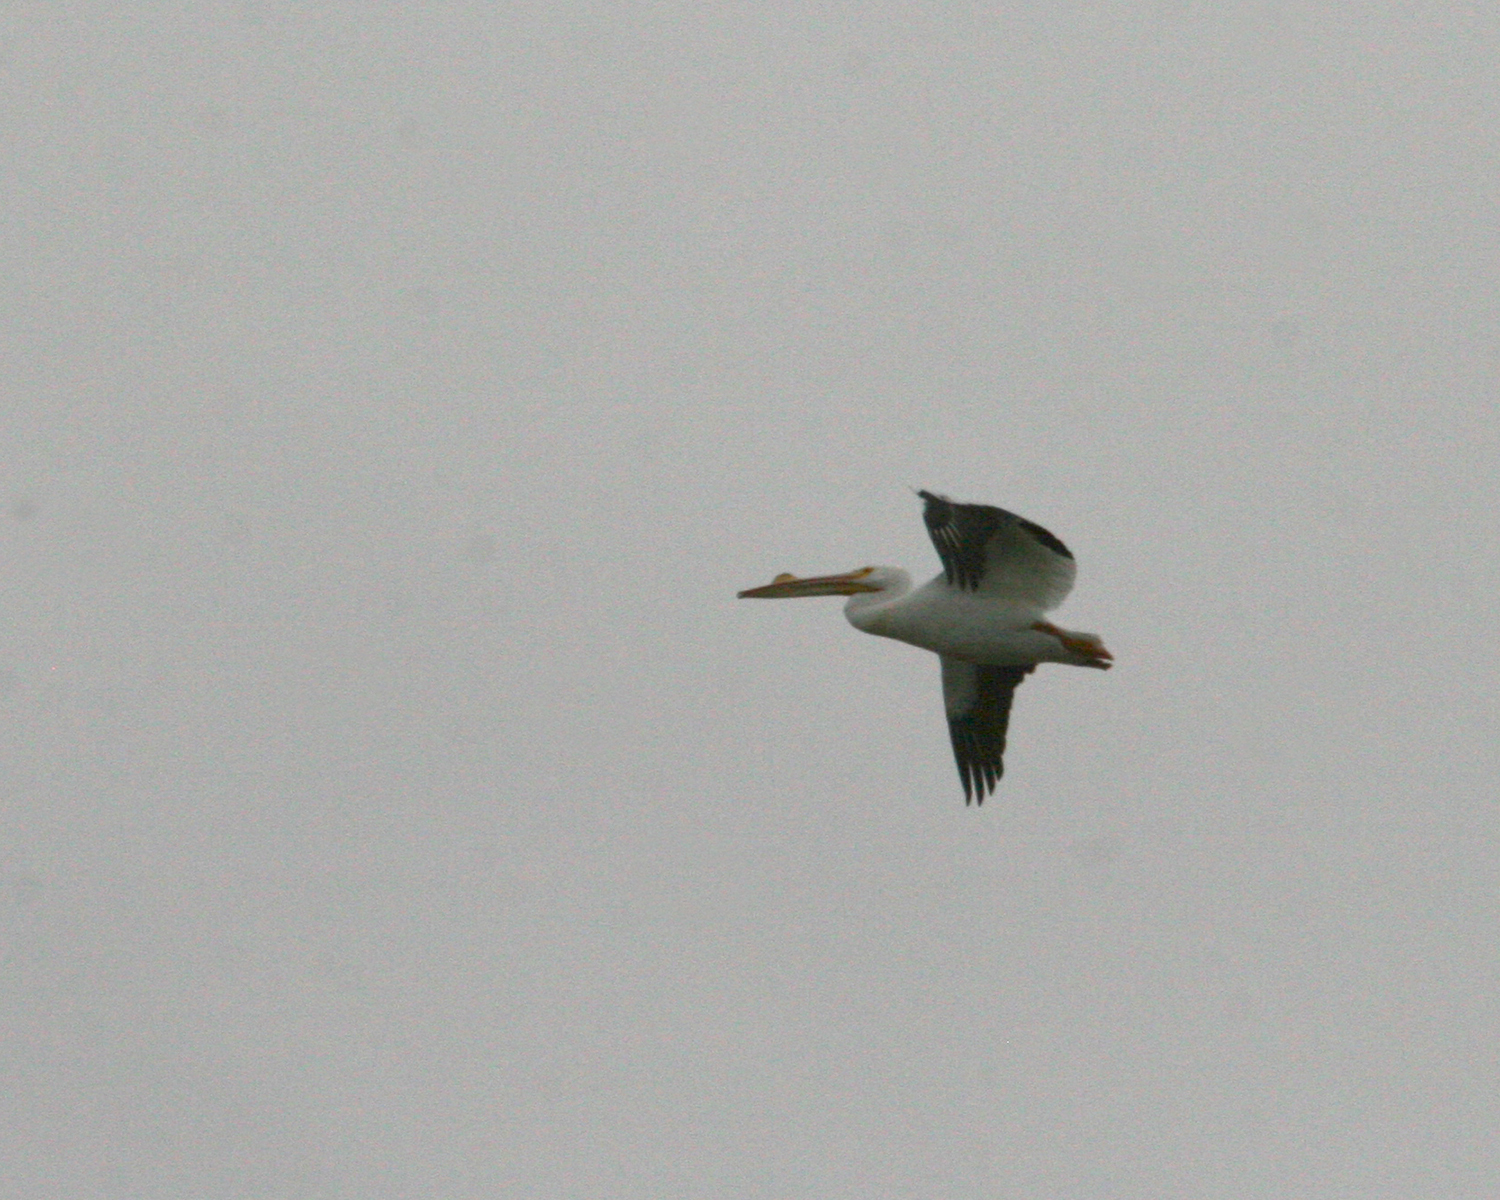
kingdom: Animalia
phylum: Chordata
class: Aves
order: Pelecaniformes
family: Pelecanidae
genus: Pelecanus
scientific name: Pelecanus erythrorhynchos
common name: American white pelican
